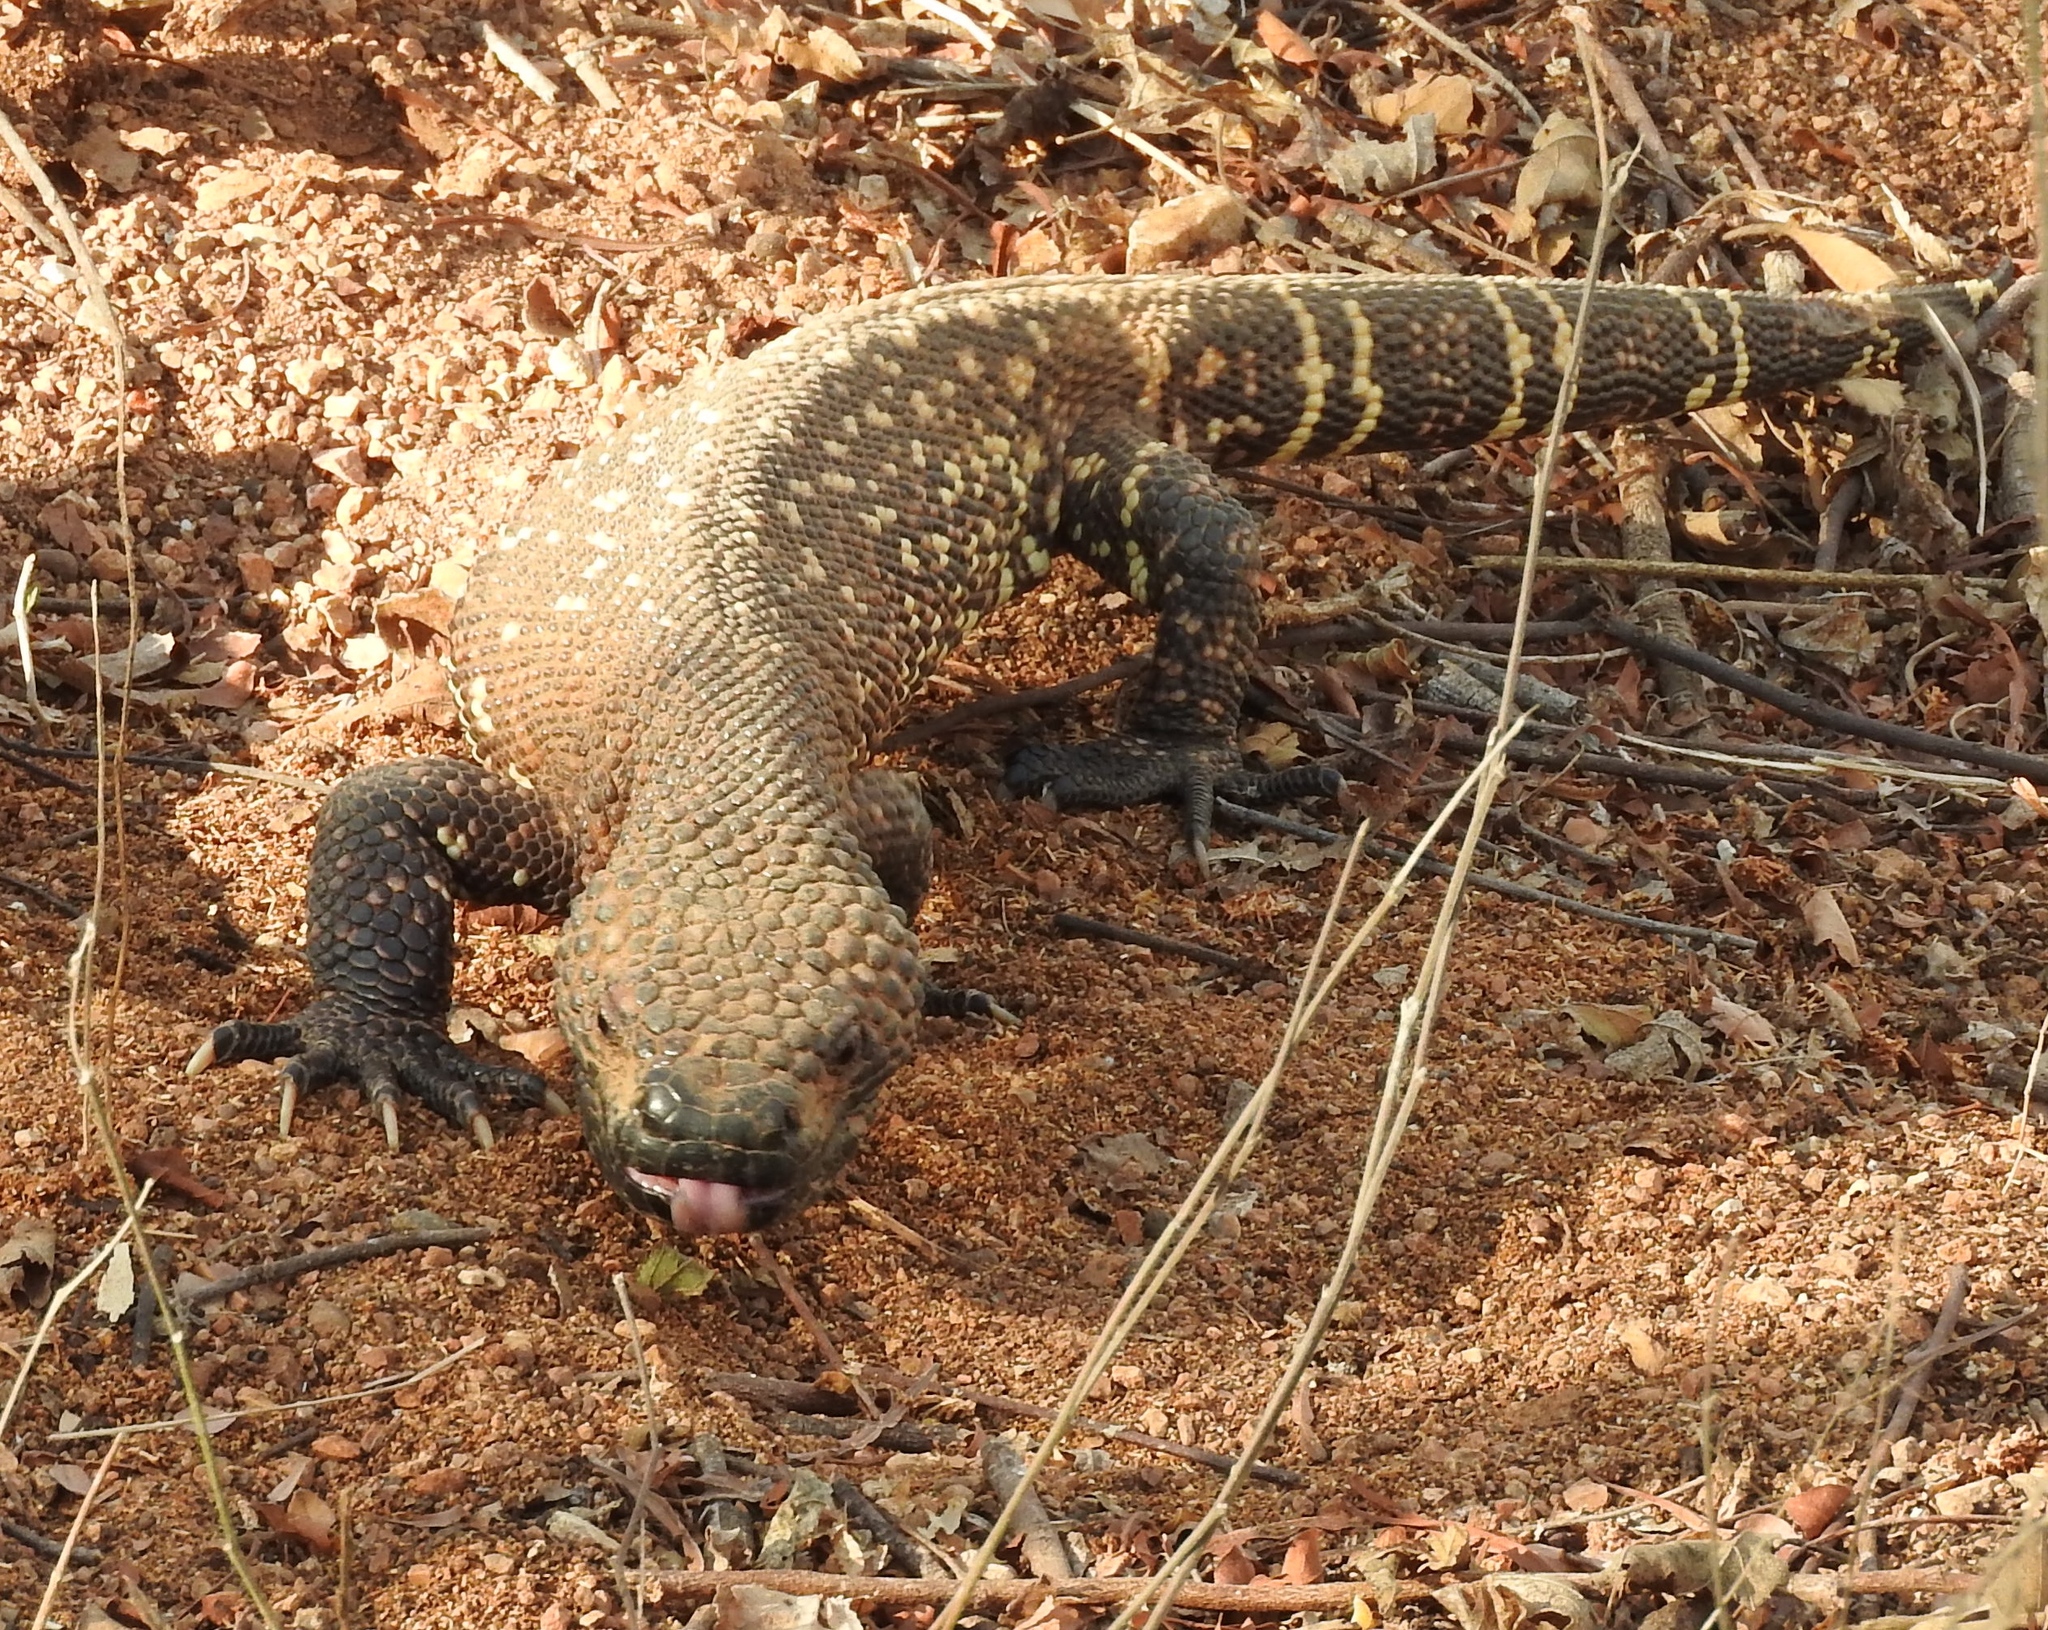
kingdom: Animalia
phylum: Chordata
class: Squamata
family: Helodermatidae
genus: Heloderma
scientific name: Heloderma horridum
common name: Mexican beaded lizard
